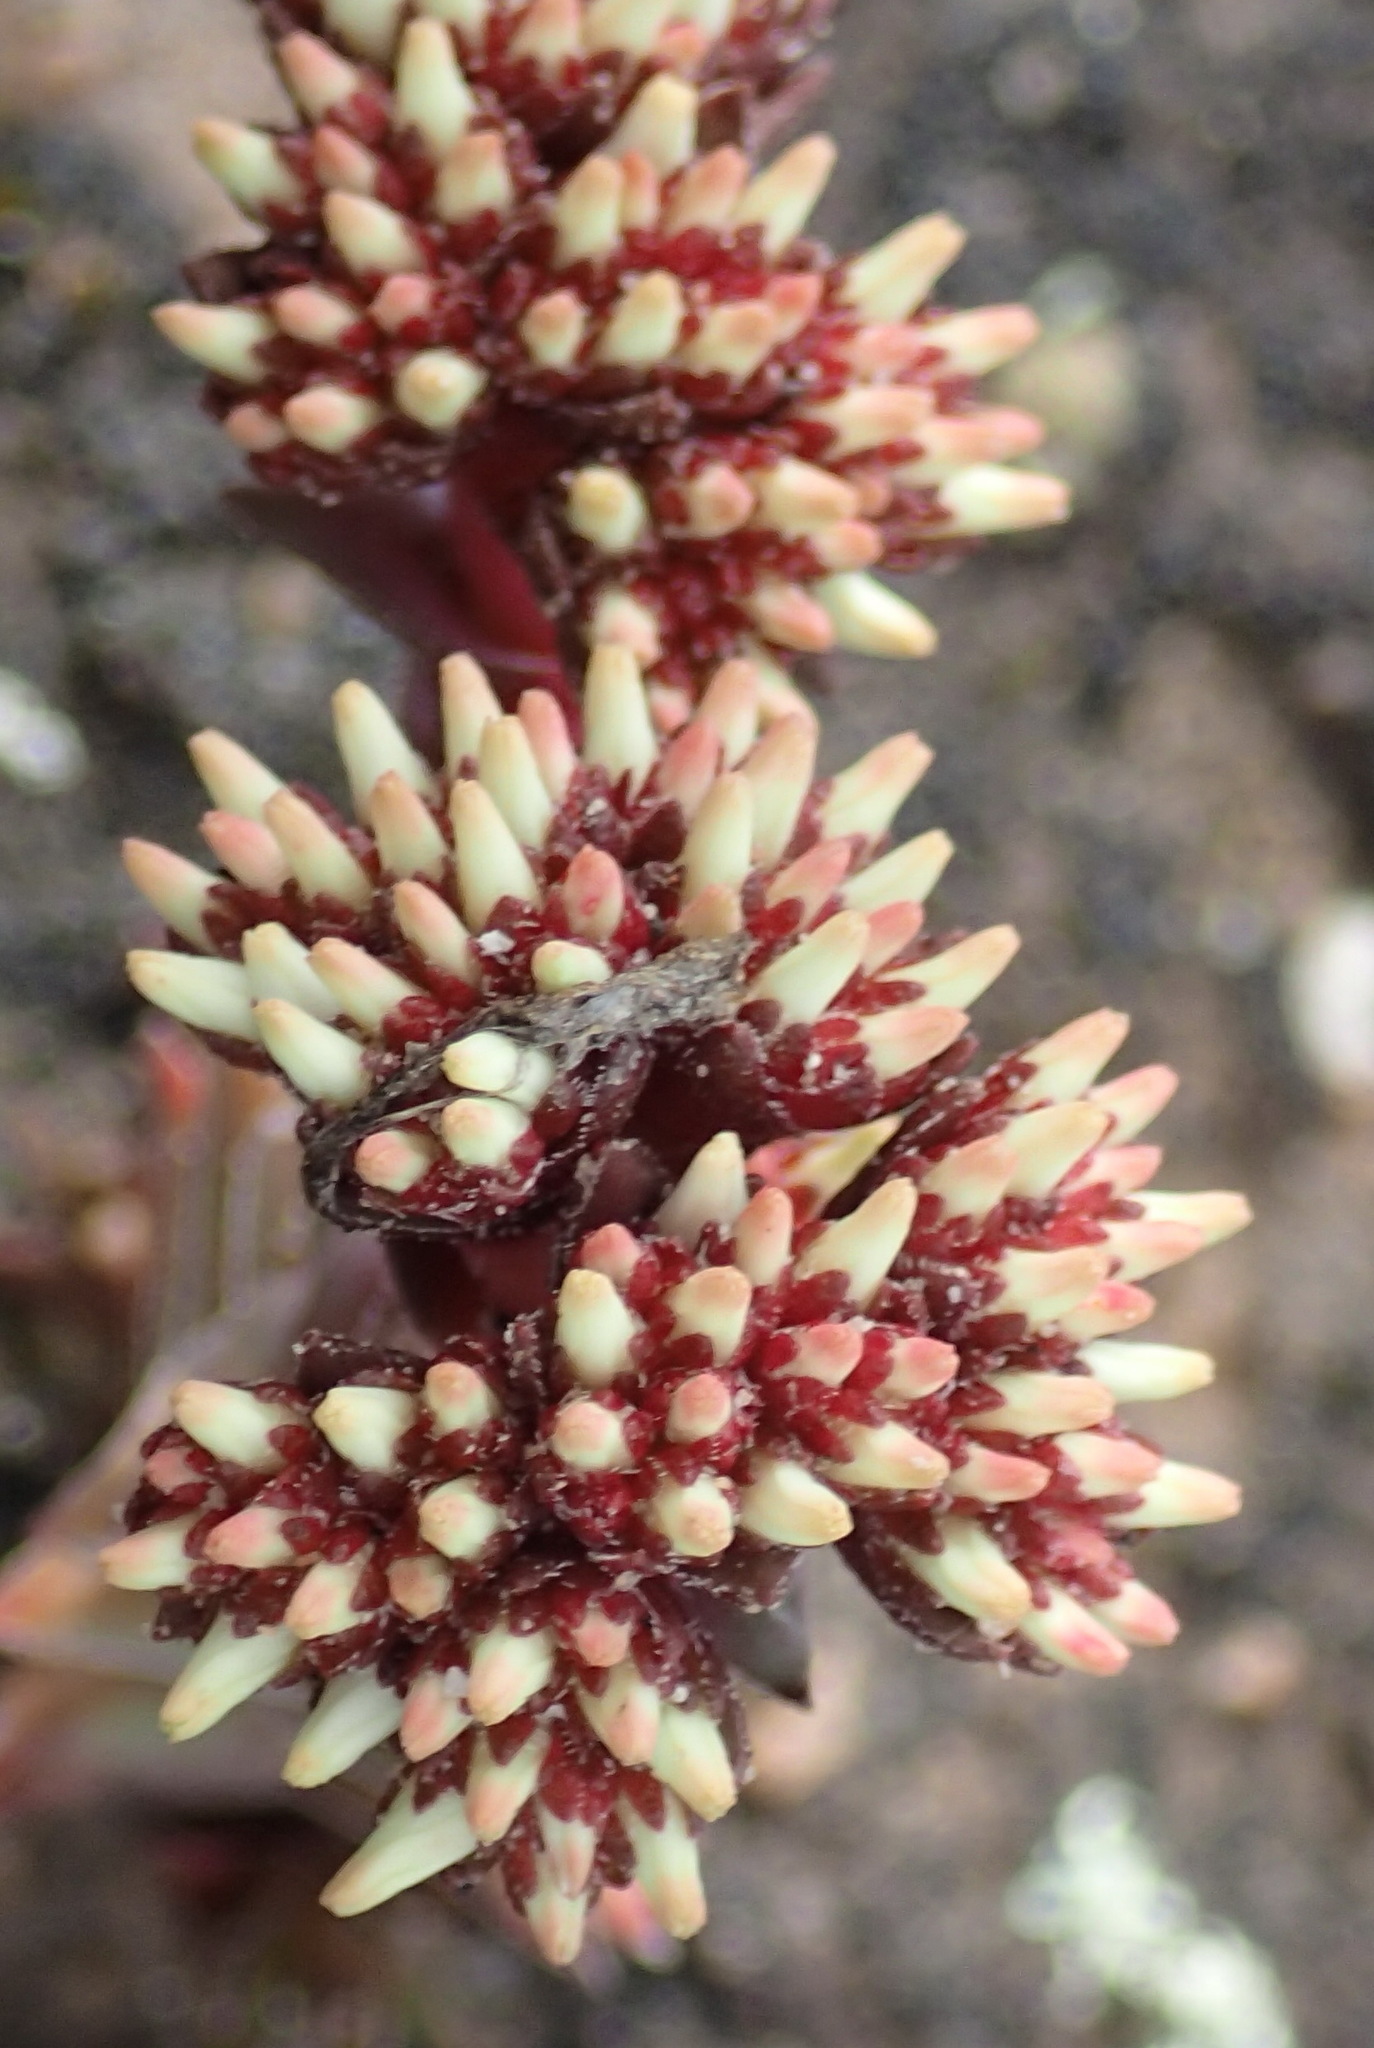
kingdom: Plantae
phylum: Tracheophyta
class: Magnoliopsida
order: Saxifragales
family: Crassulaceae
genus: Crassula
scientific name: Crassula alpestris
